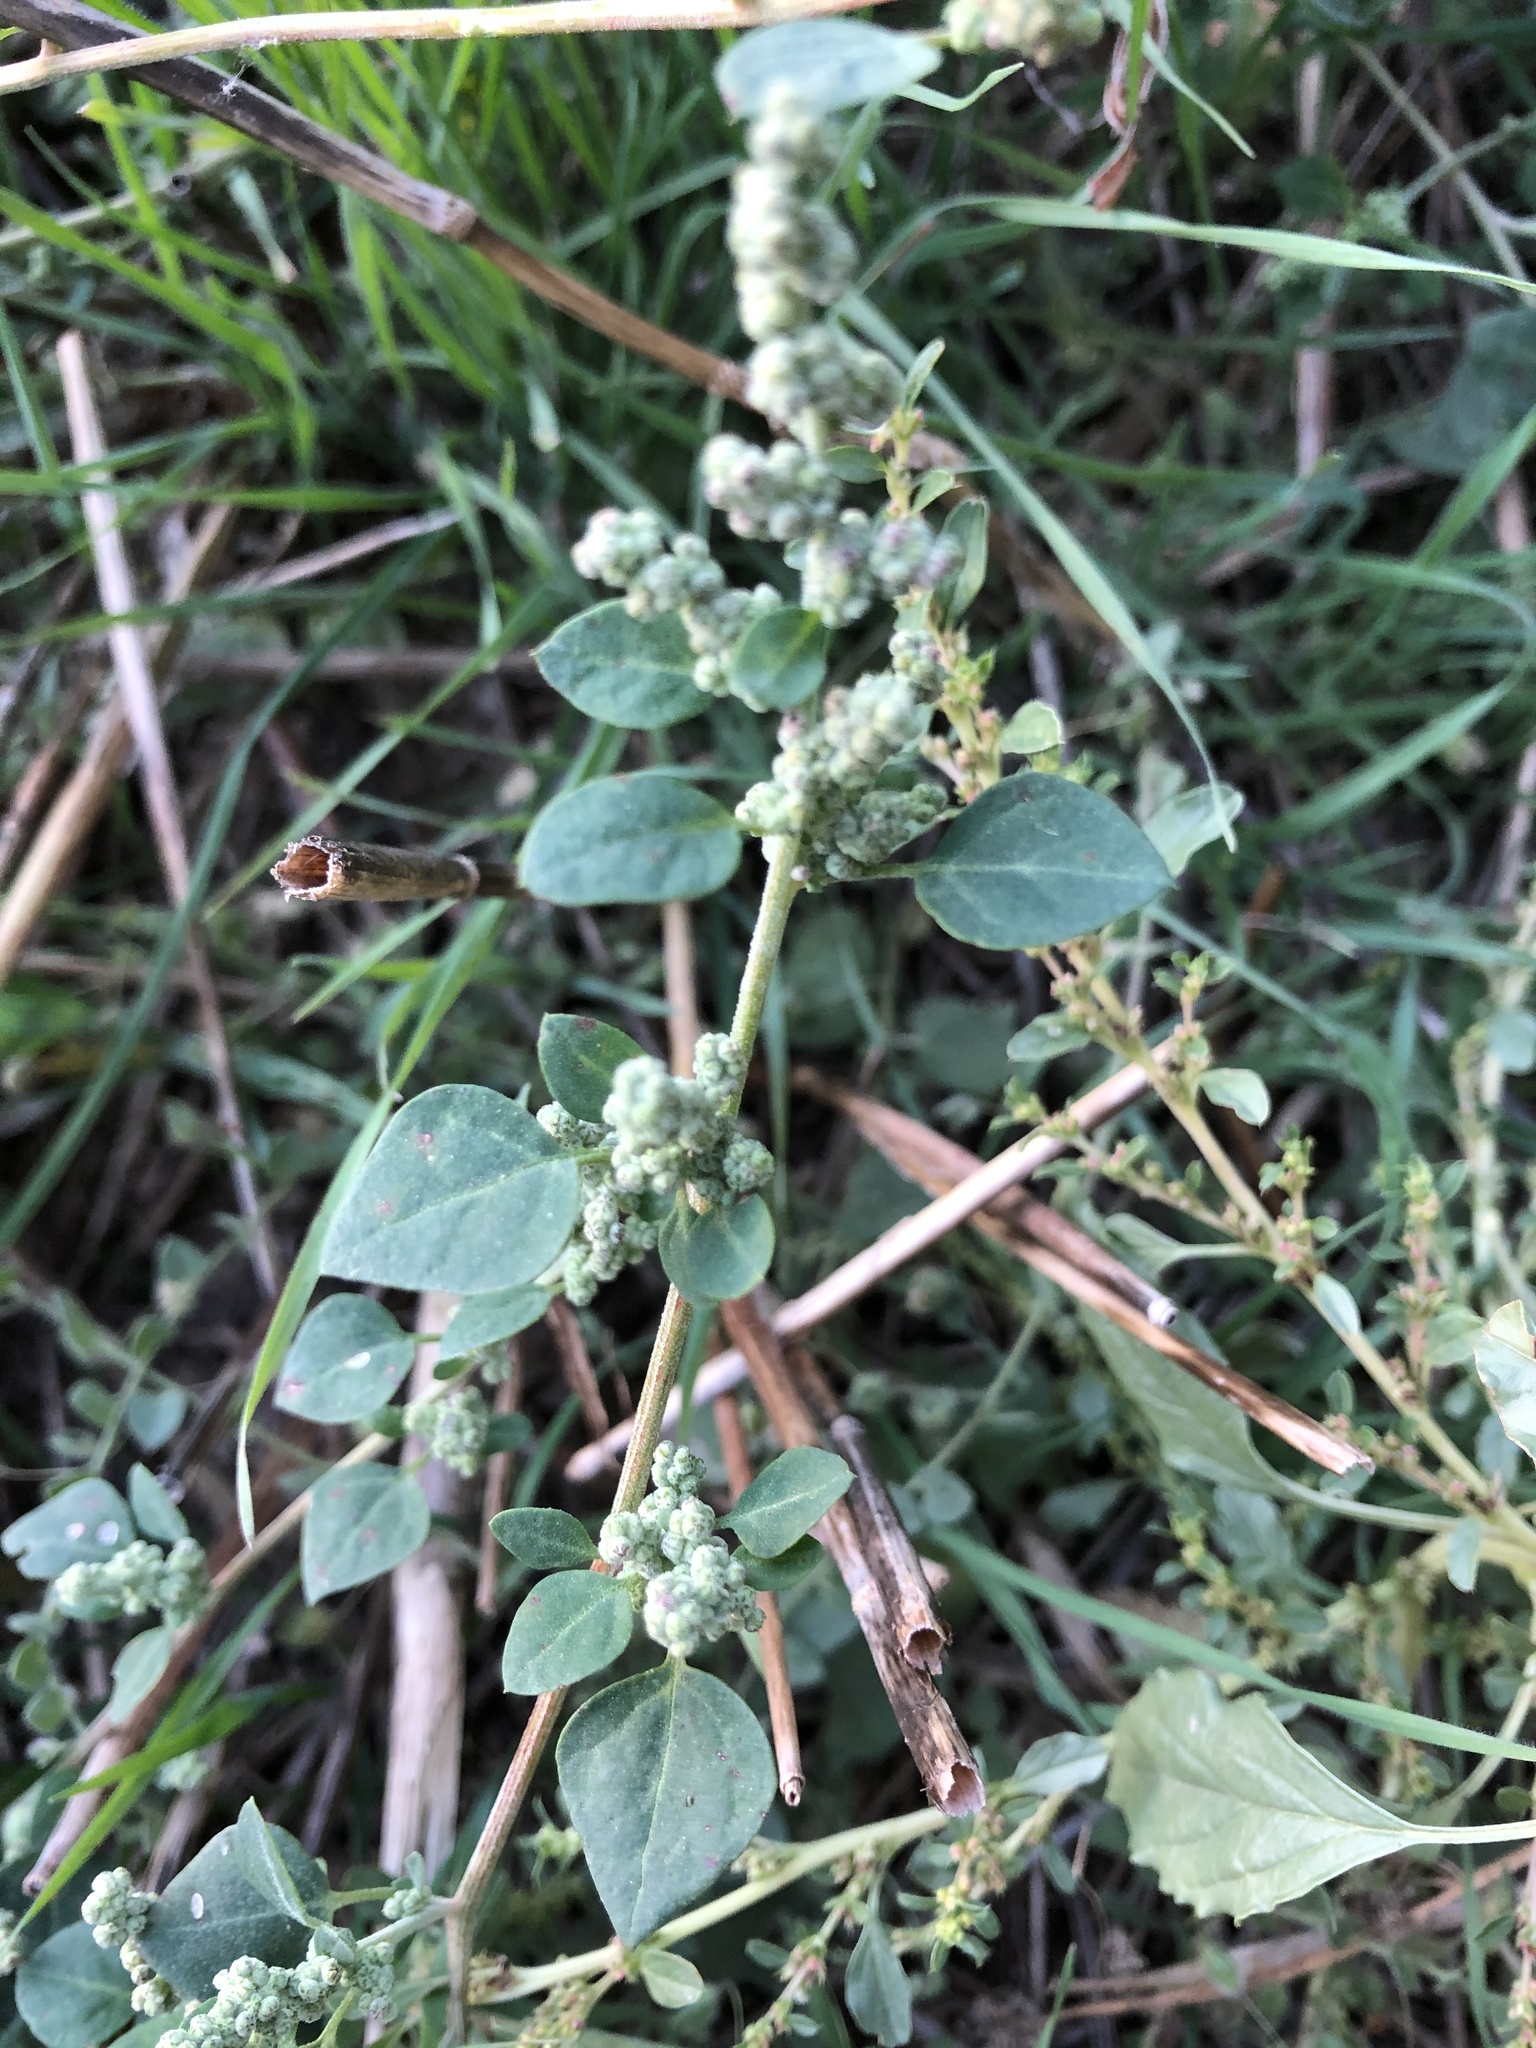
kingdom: Plantae
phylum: Tracheophyta
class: Magnoliopsida
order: Caryophyllales
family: Amaranthaceae
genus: Chenopodium
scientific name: Chenopodium vulvaria
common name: Stinking goosefoot
